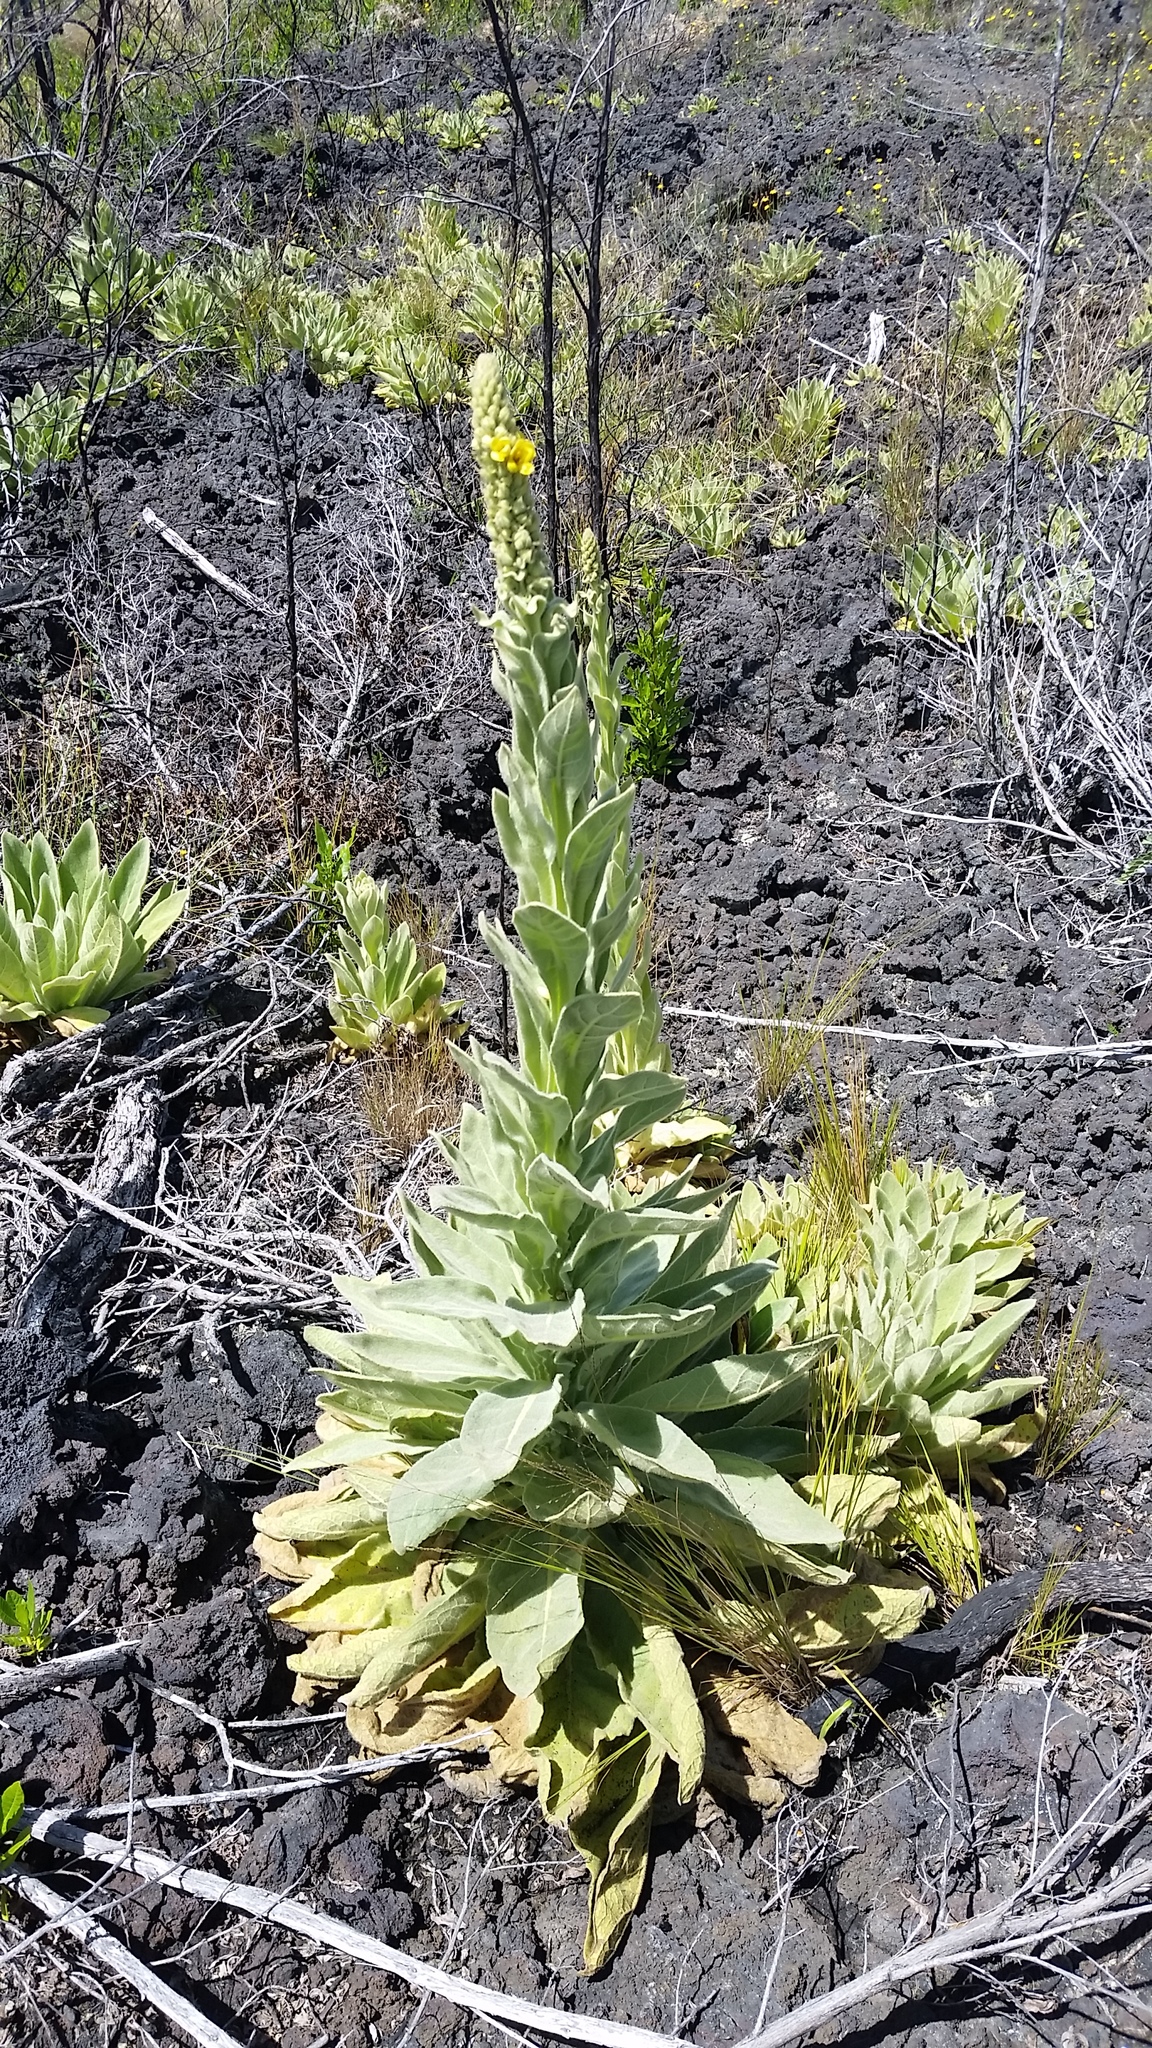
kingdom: Plantae
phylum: Tracheophyta
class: Magnoliopsida
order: Lamiales
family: Scrophulariaceae
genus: Verbascum
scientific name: Verbascum thapsus
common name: Common mullein
